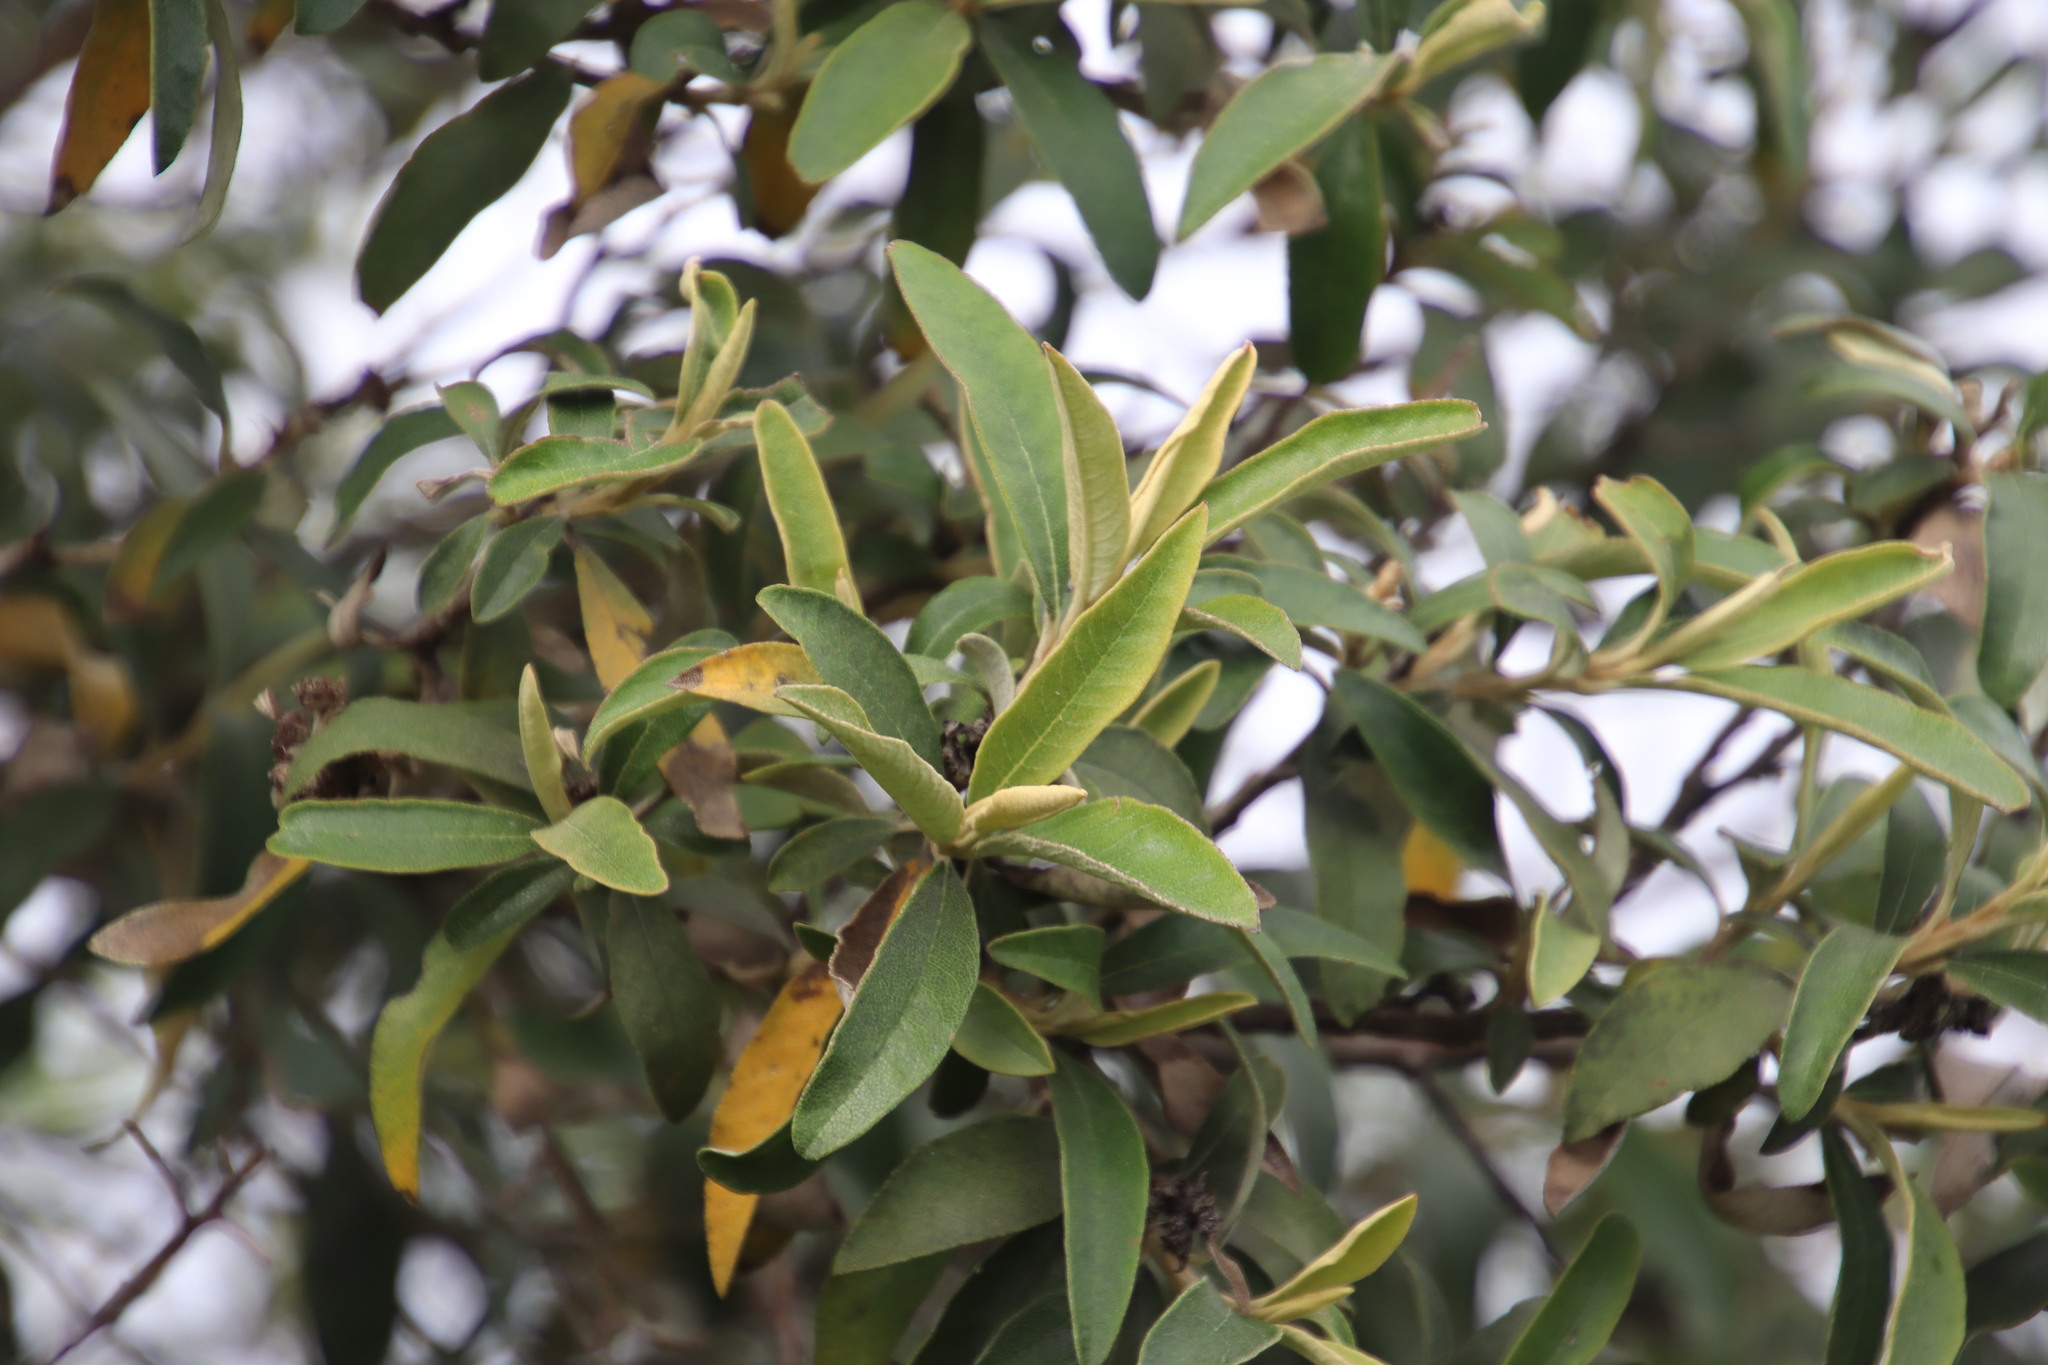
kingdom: Plantae
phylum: Tracheophyta
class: Magnoliopsida
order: Asterales
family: Asteraceae
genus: Tarchonanthus
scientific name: Tarchonanthus littoralis
